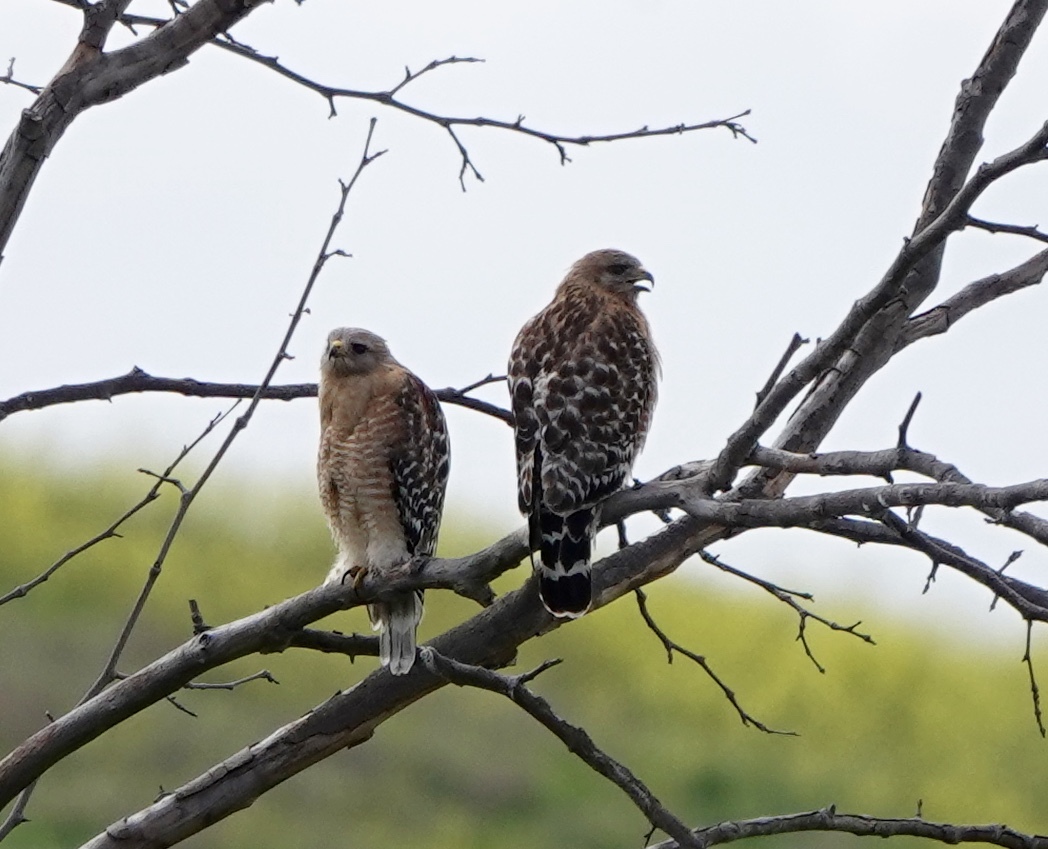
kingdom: Animalia
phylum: Chordata
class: Aves
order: Accipitriformes
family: Accipitridae
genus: Buteo
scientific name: Buteo lineatus
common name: Red-shouldered hawk
